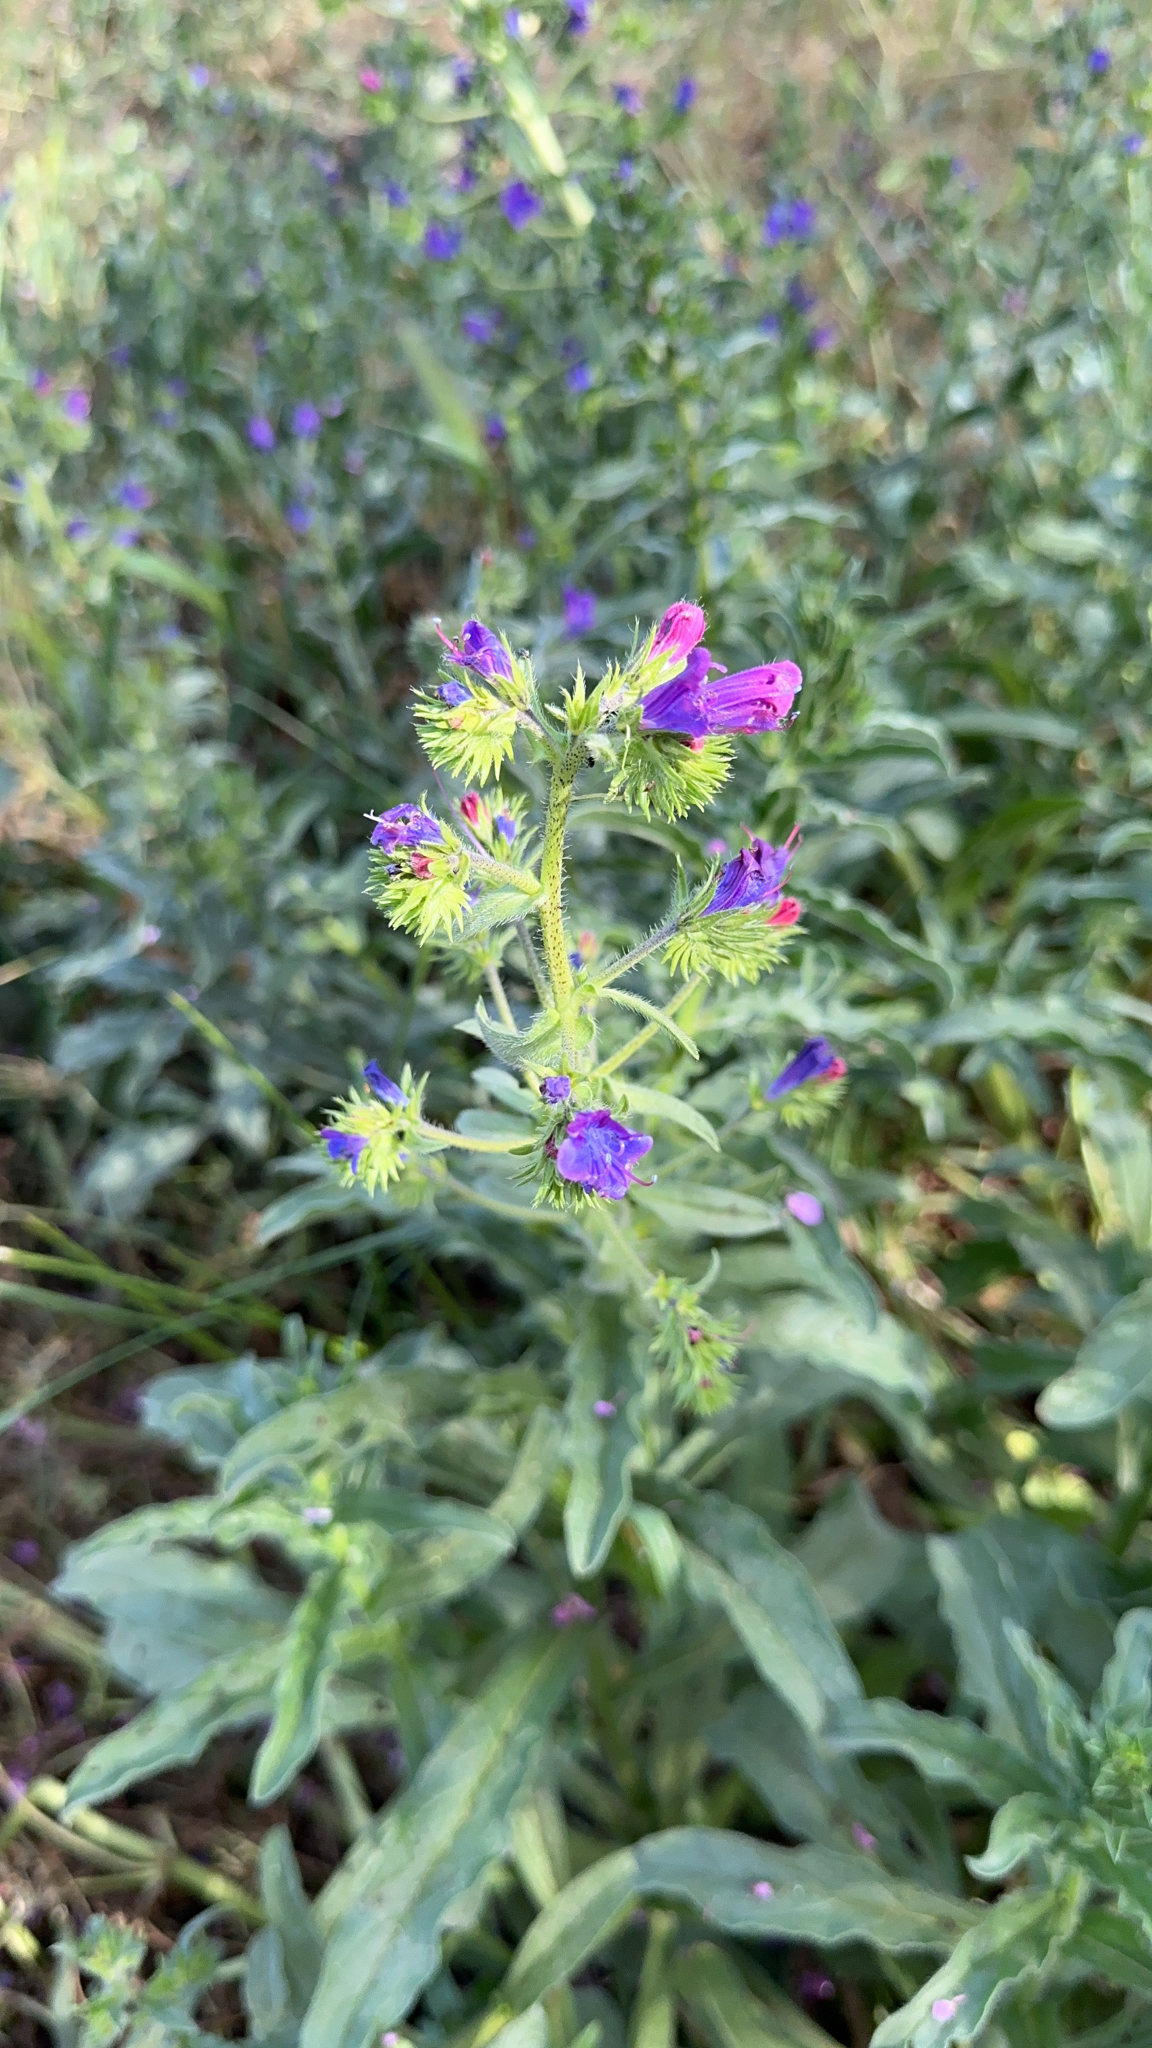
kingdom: Plantae
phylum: Tracheophyta
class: Magnoliopsida
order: Boraginales
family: Boraginaceae
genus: Echium
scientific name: Echium plantagineum
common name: Purple viper's-bugloss
